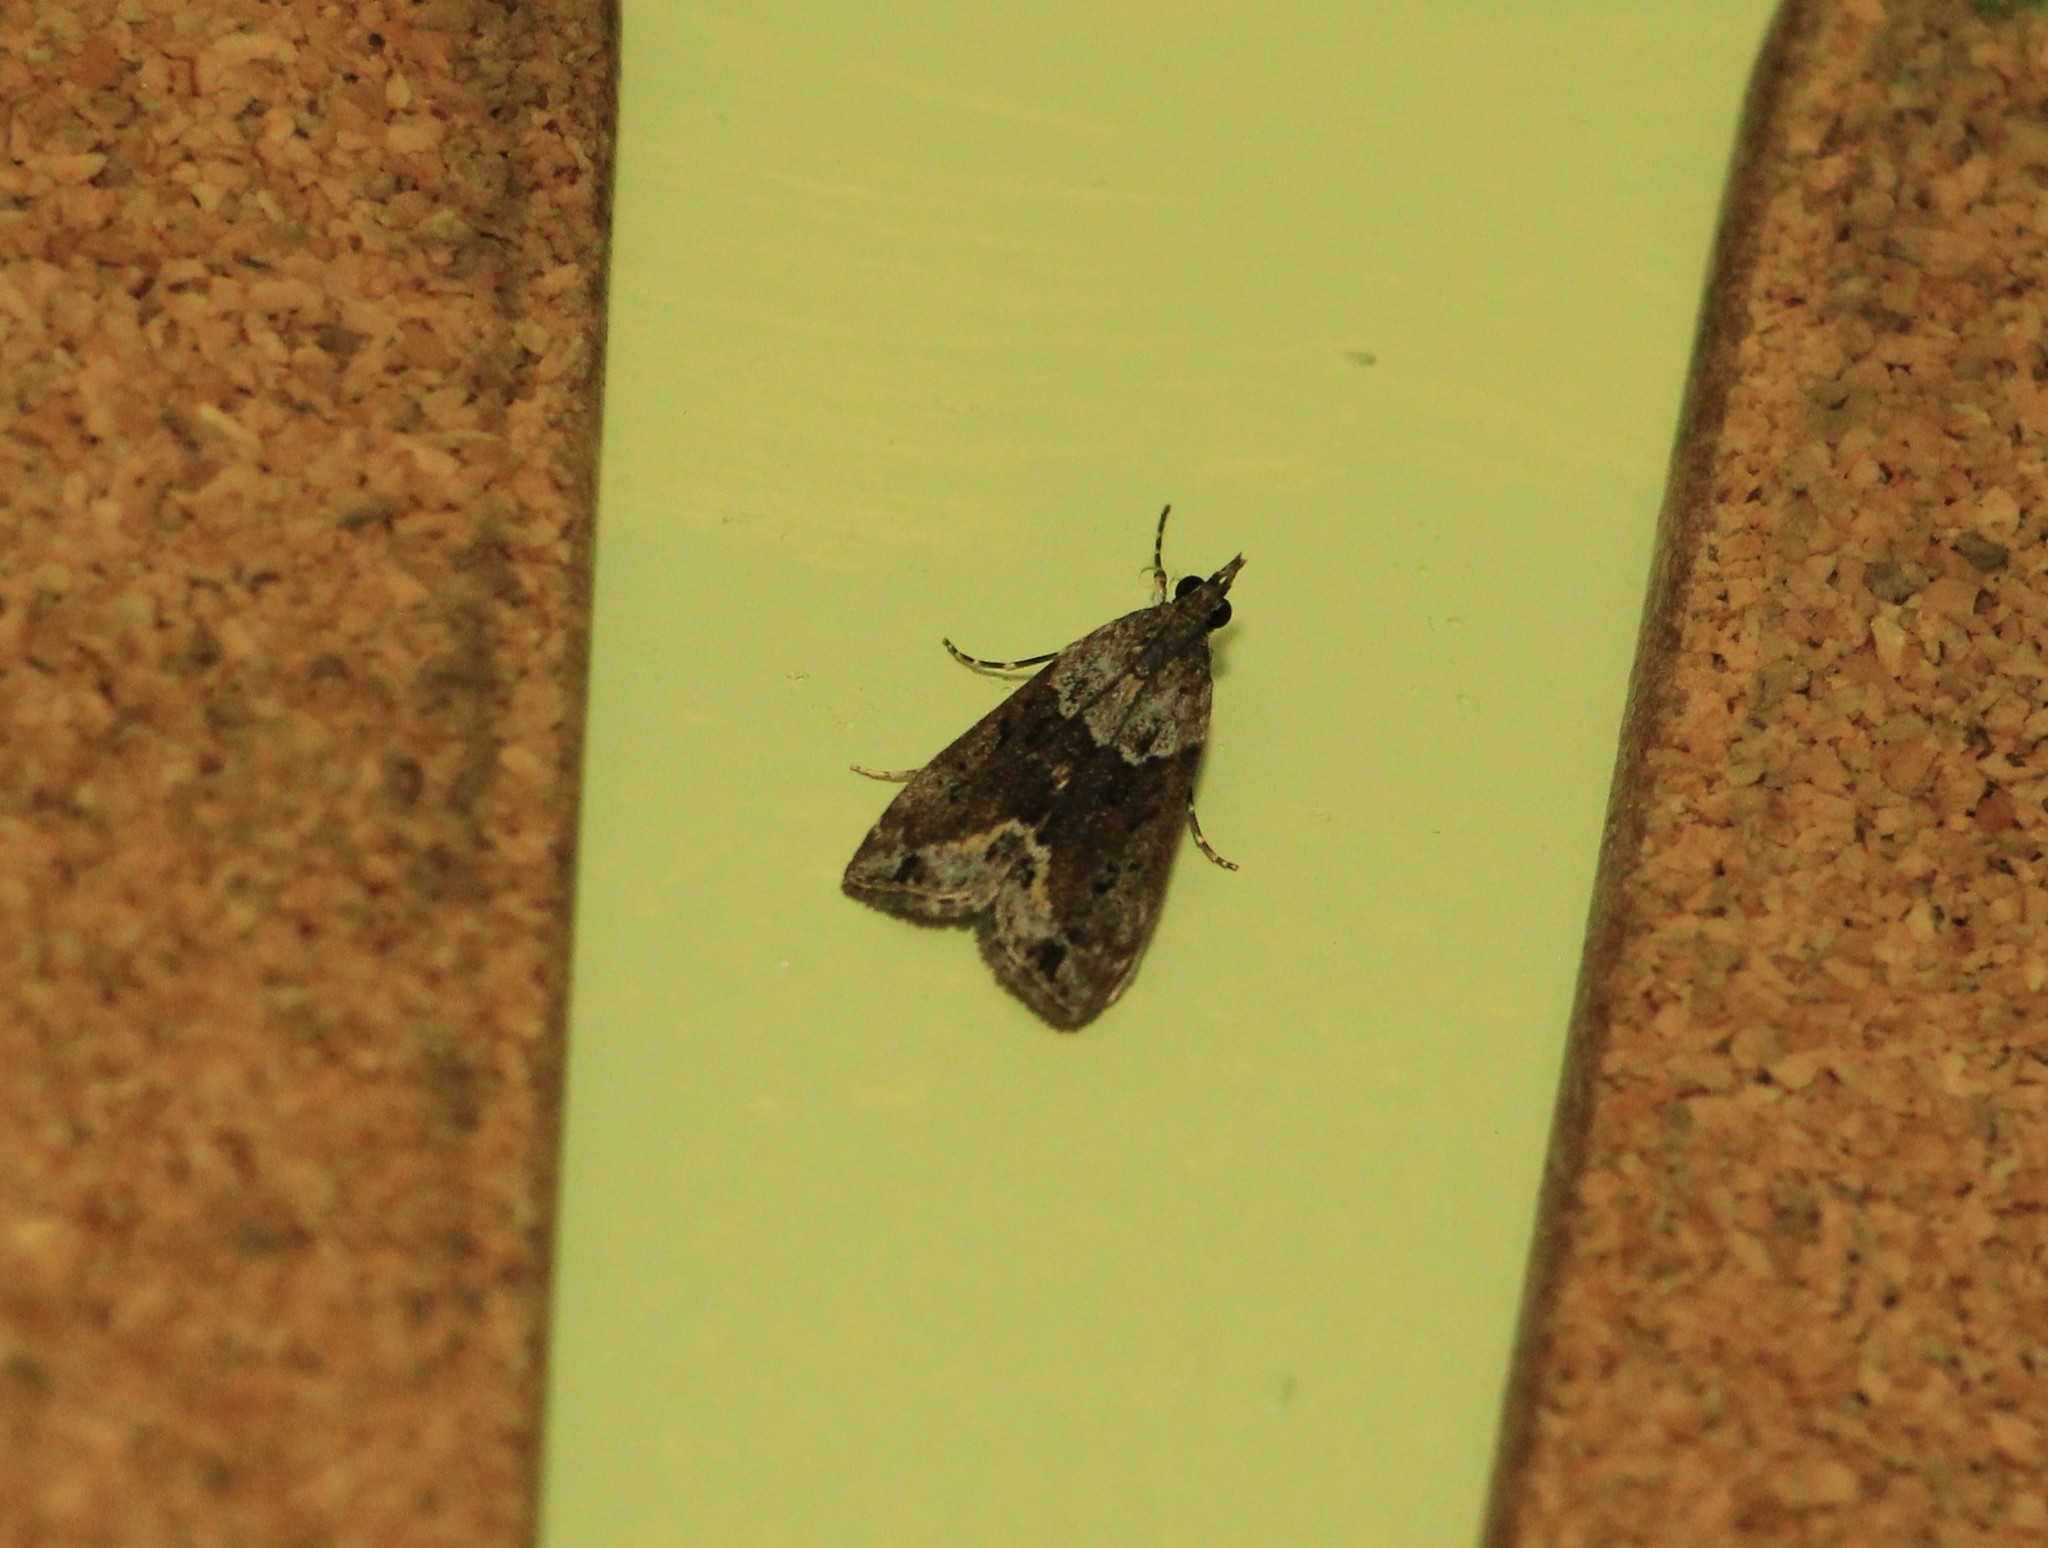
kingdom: Animalia
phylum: Arthropoda
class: Insecta
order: Lepidoptera
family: Crambidae
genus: Eudonia
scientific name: Eudonia submarginalis
